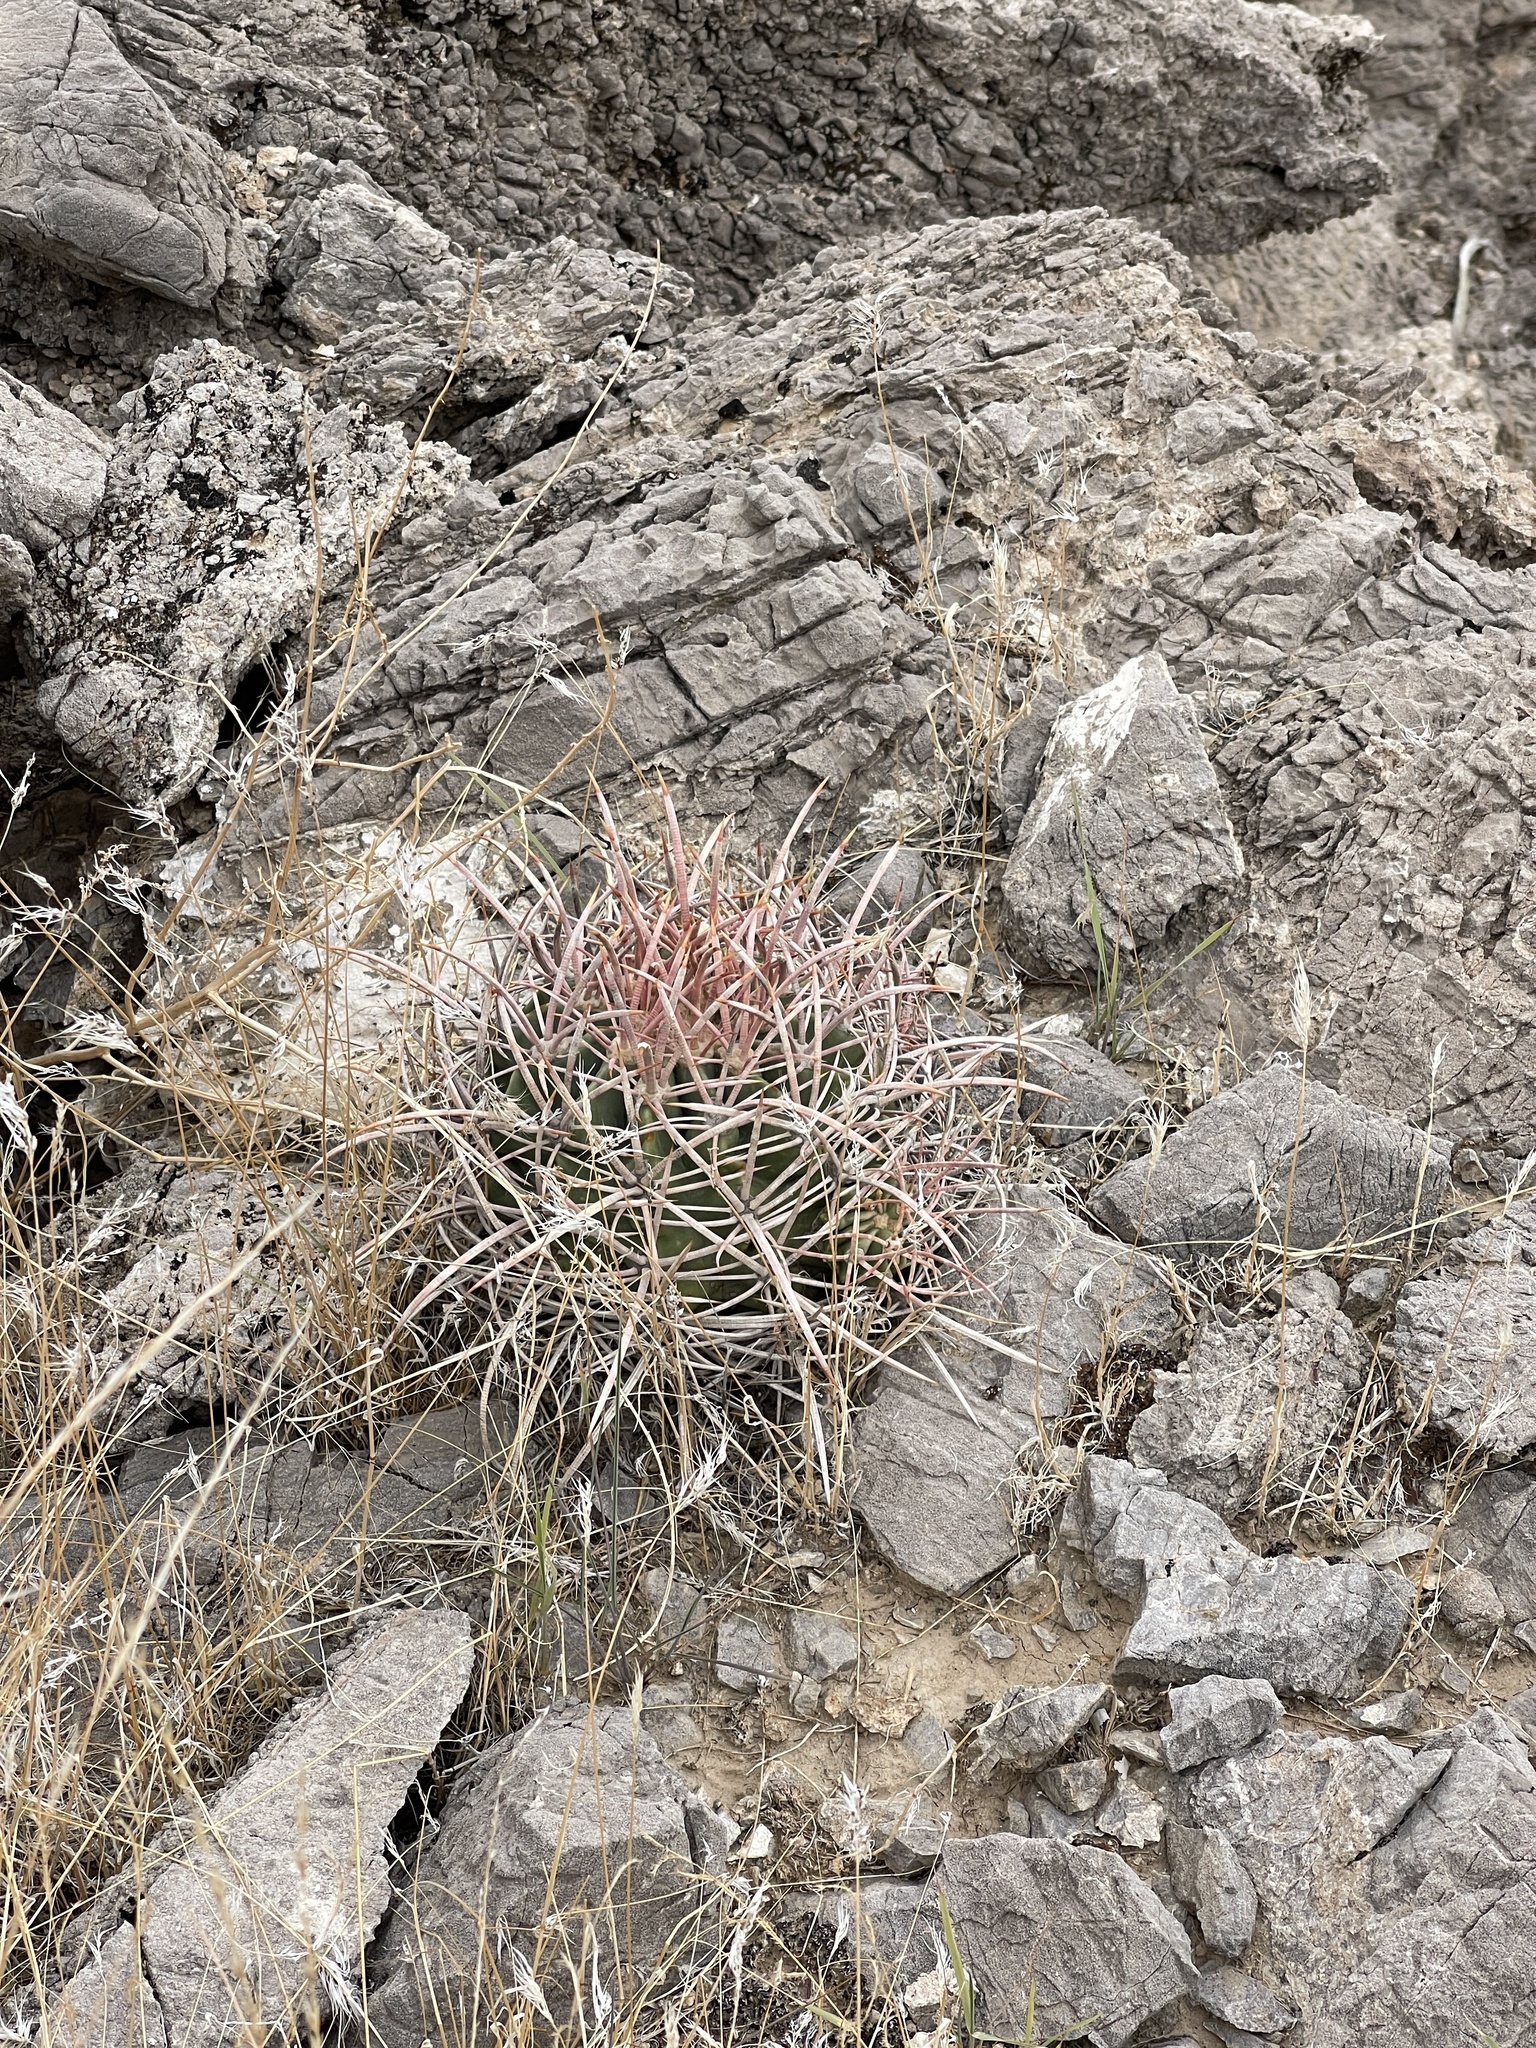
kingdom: Plantae
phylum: Tracheophyta
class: Magnoliopsida
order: Caryophyllales
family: Cactaceae
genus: Echinocactus
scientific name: Echinocactus polycephalus
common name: Cottontop cactus
